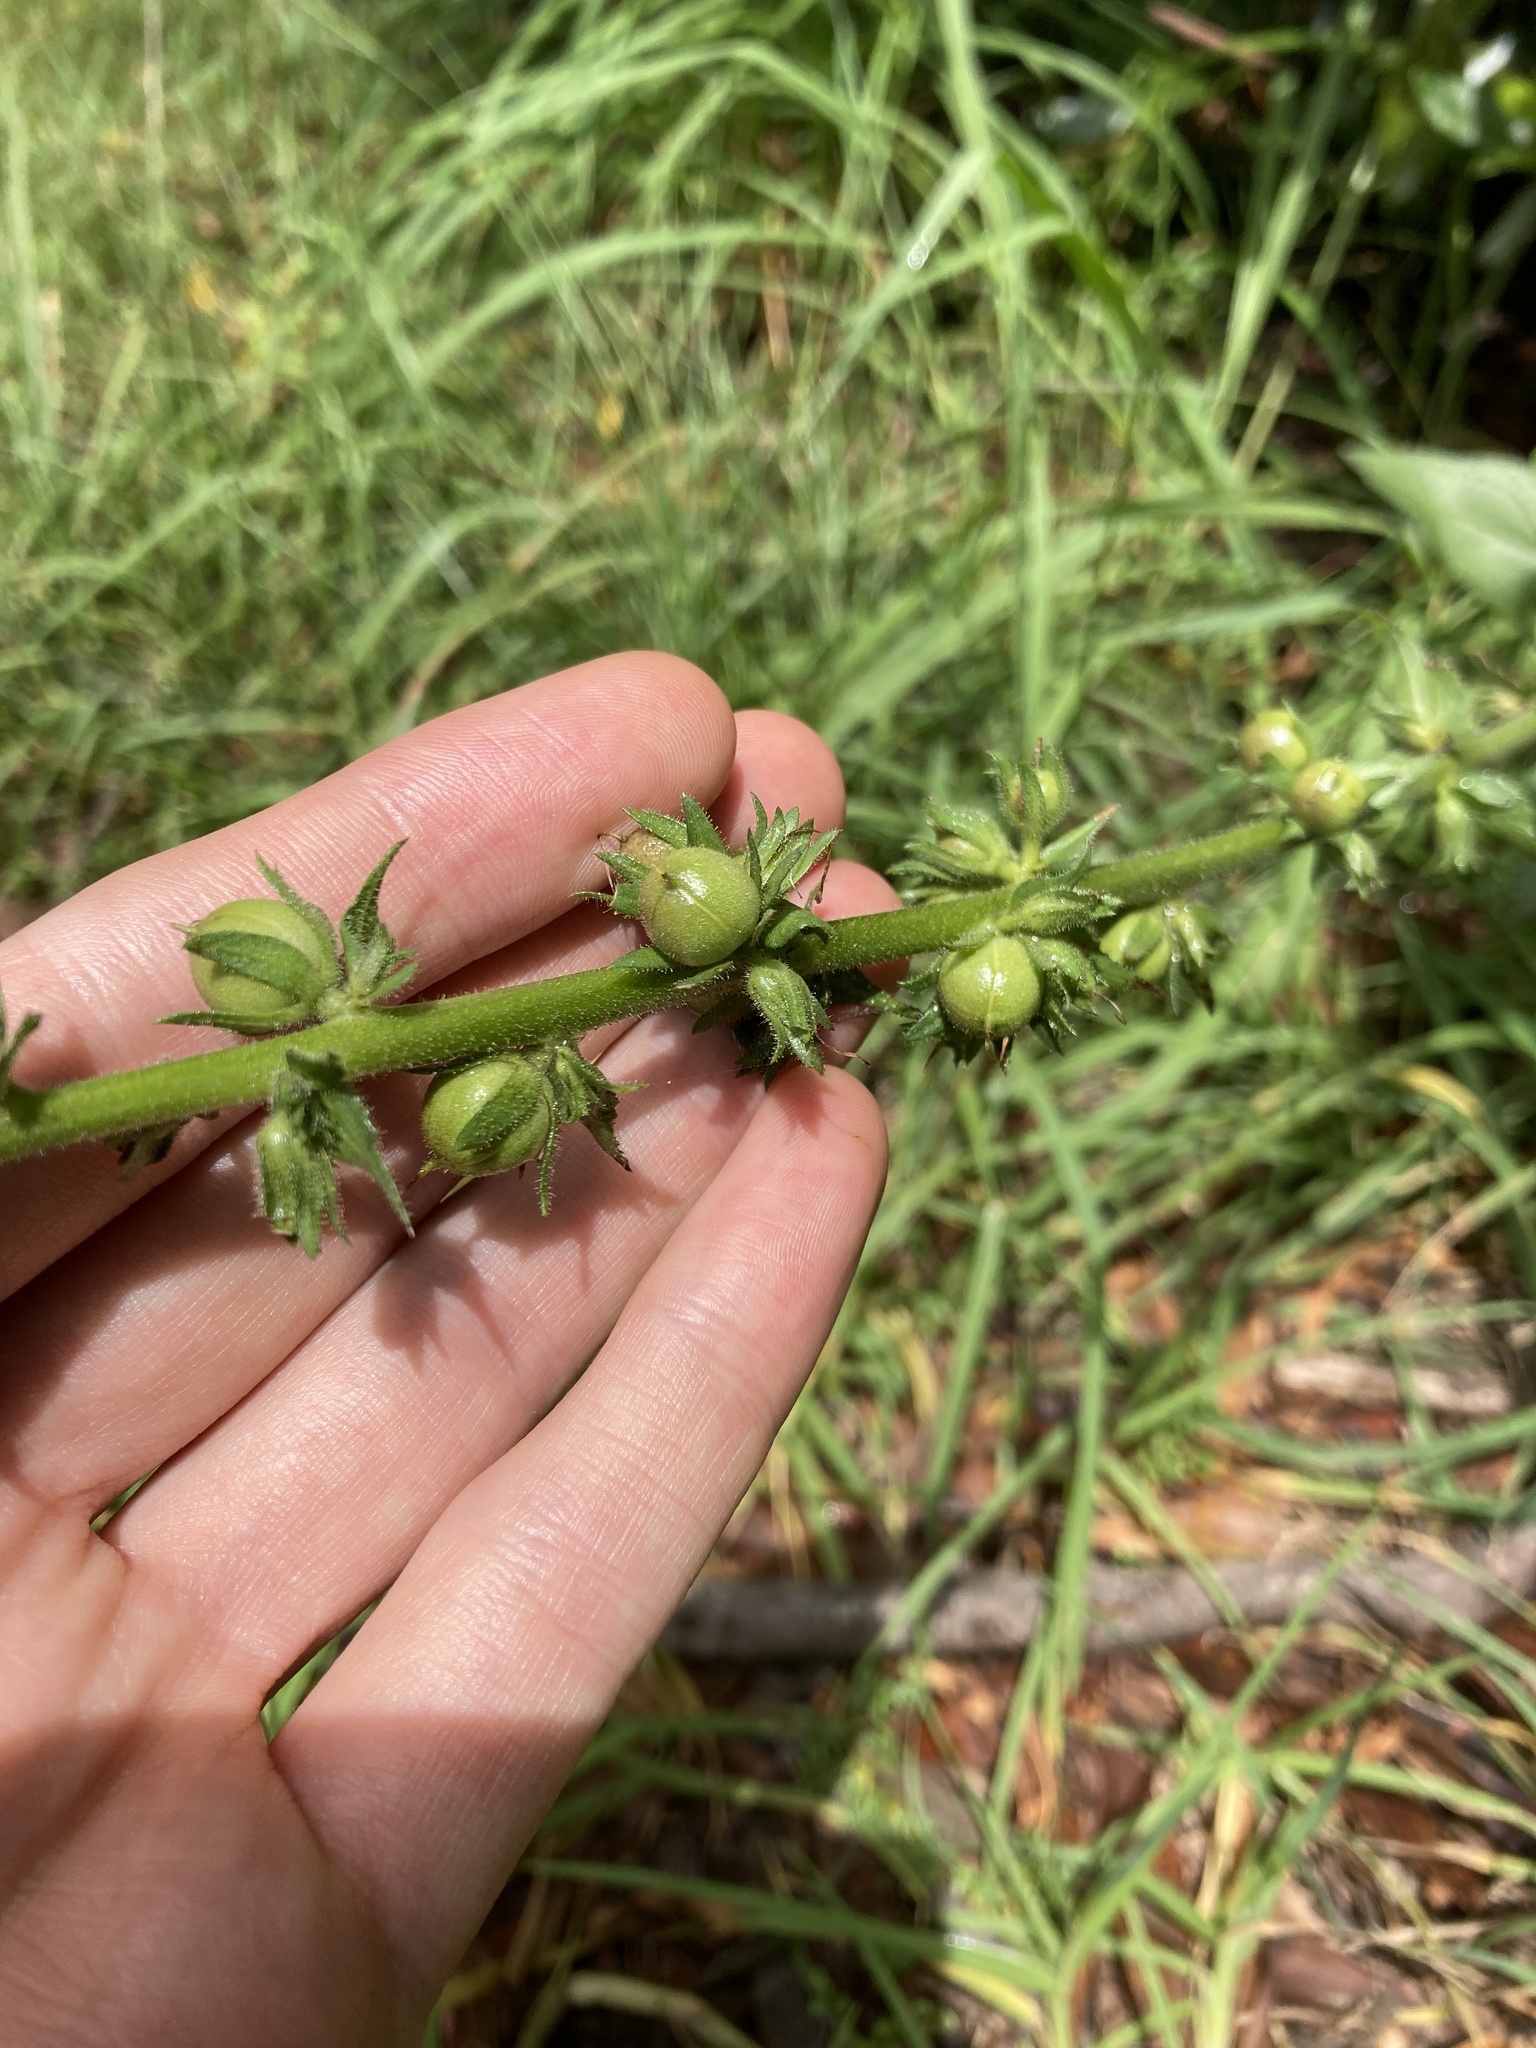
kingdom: Plantae
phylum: Tracheophyta
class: Magnoliopsida
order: Lamiales
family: Scrophulariaceae
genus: Verbascum
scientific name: Verbascum virgatum
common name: Twiggy mullein
